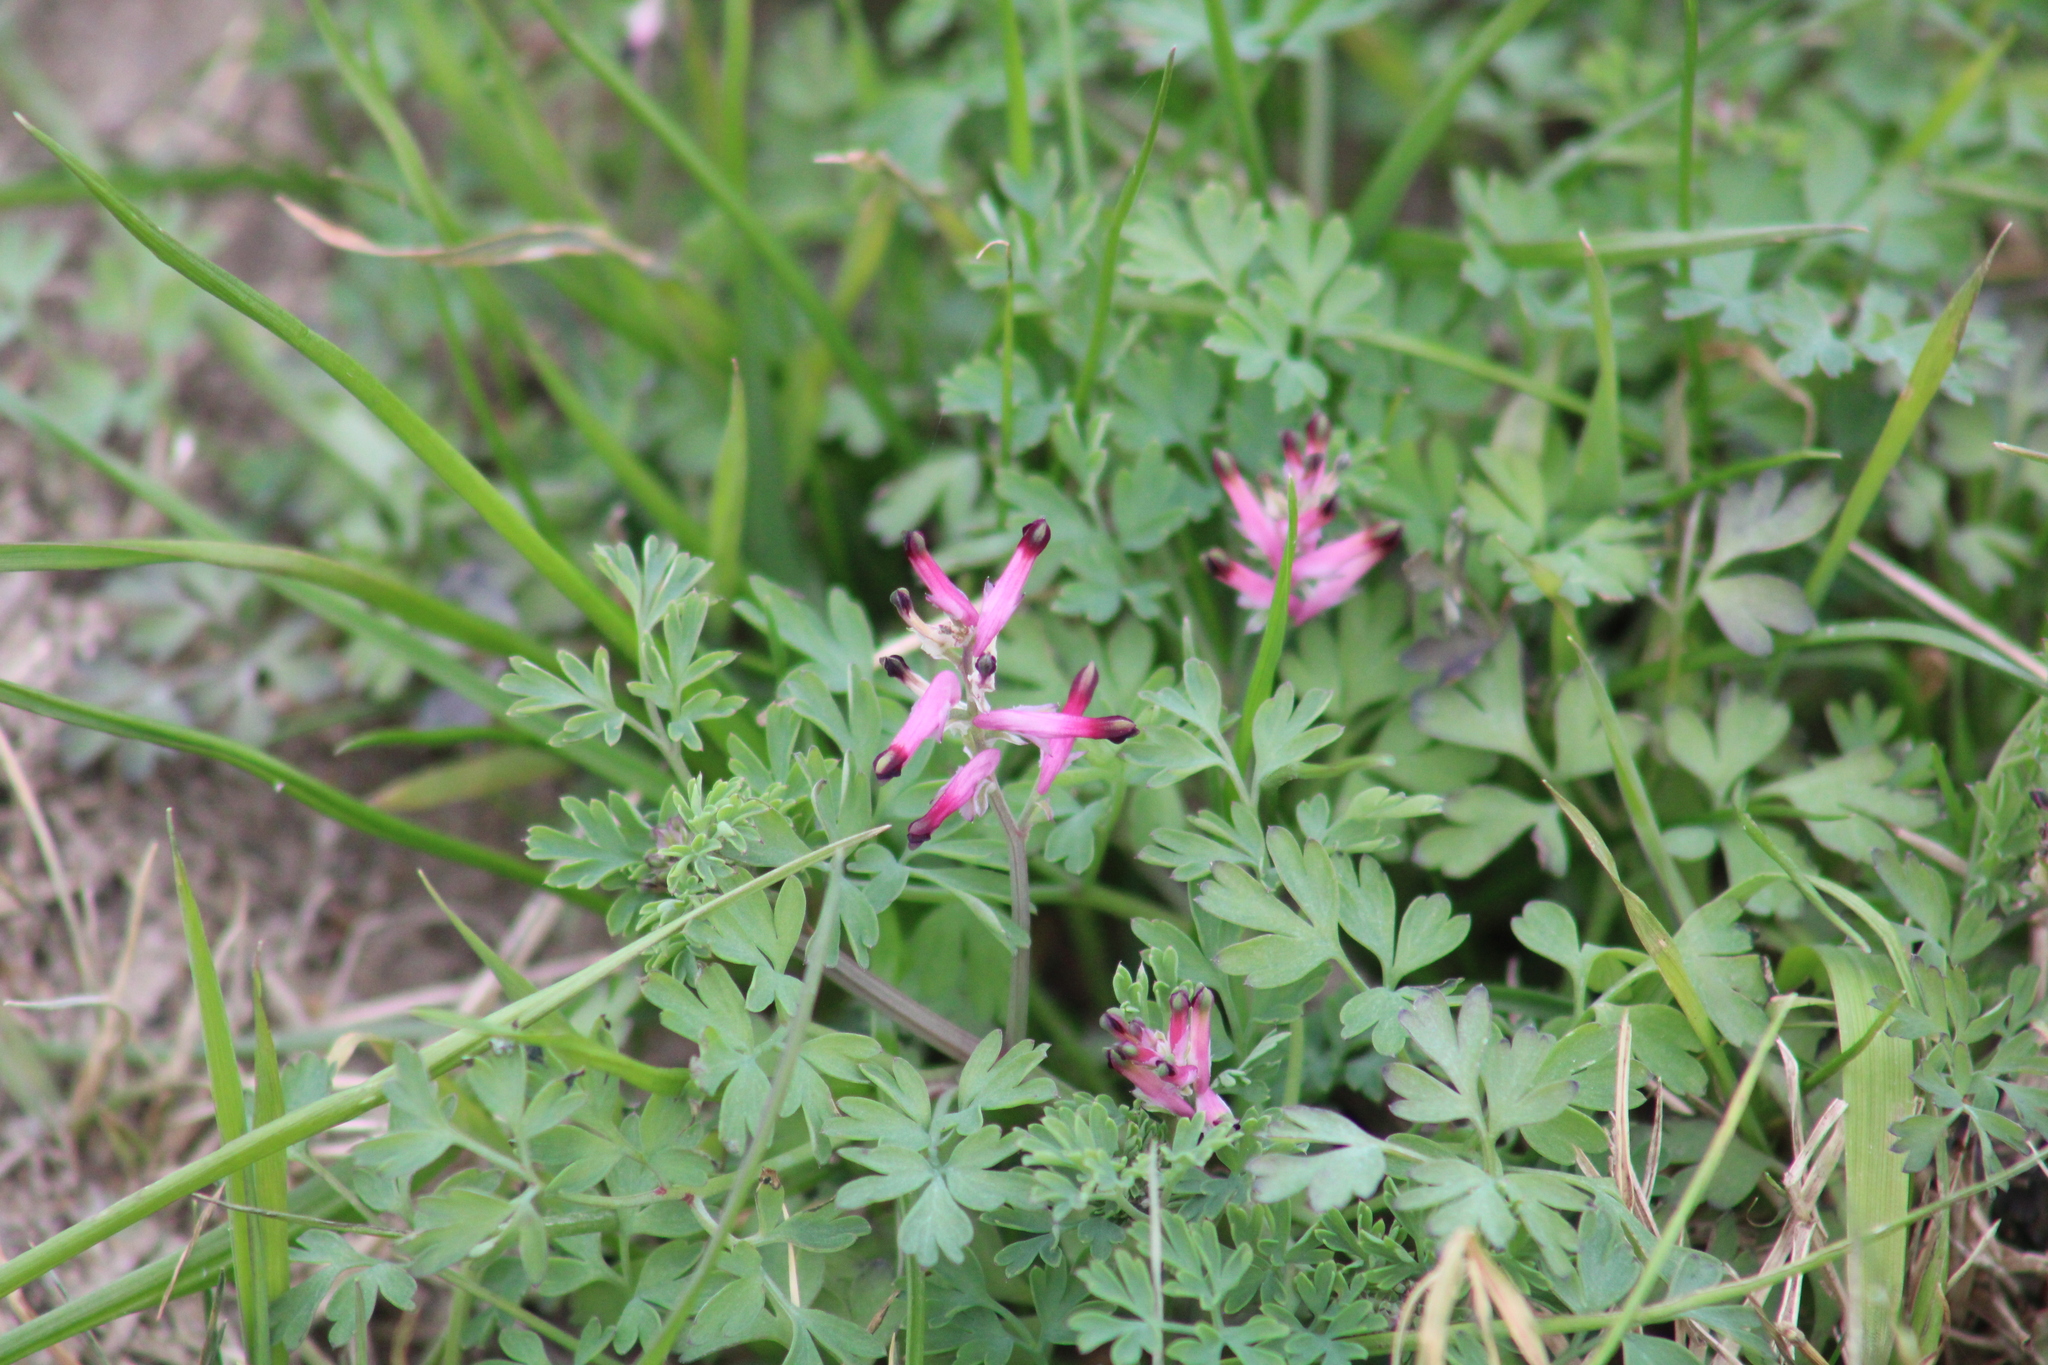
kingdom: Plantae
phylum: Tracheophyta
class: Magnoliopsida
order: Ranunculales
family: Papaveraceae
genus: Fumaria
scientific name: Fumaria muralis
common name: Common ramping-fumitory
